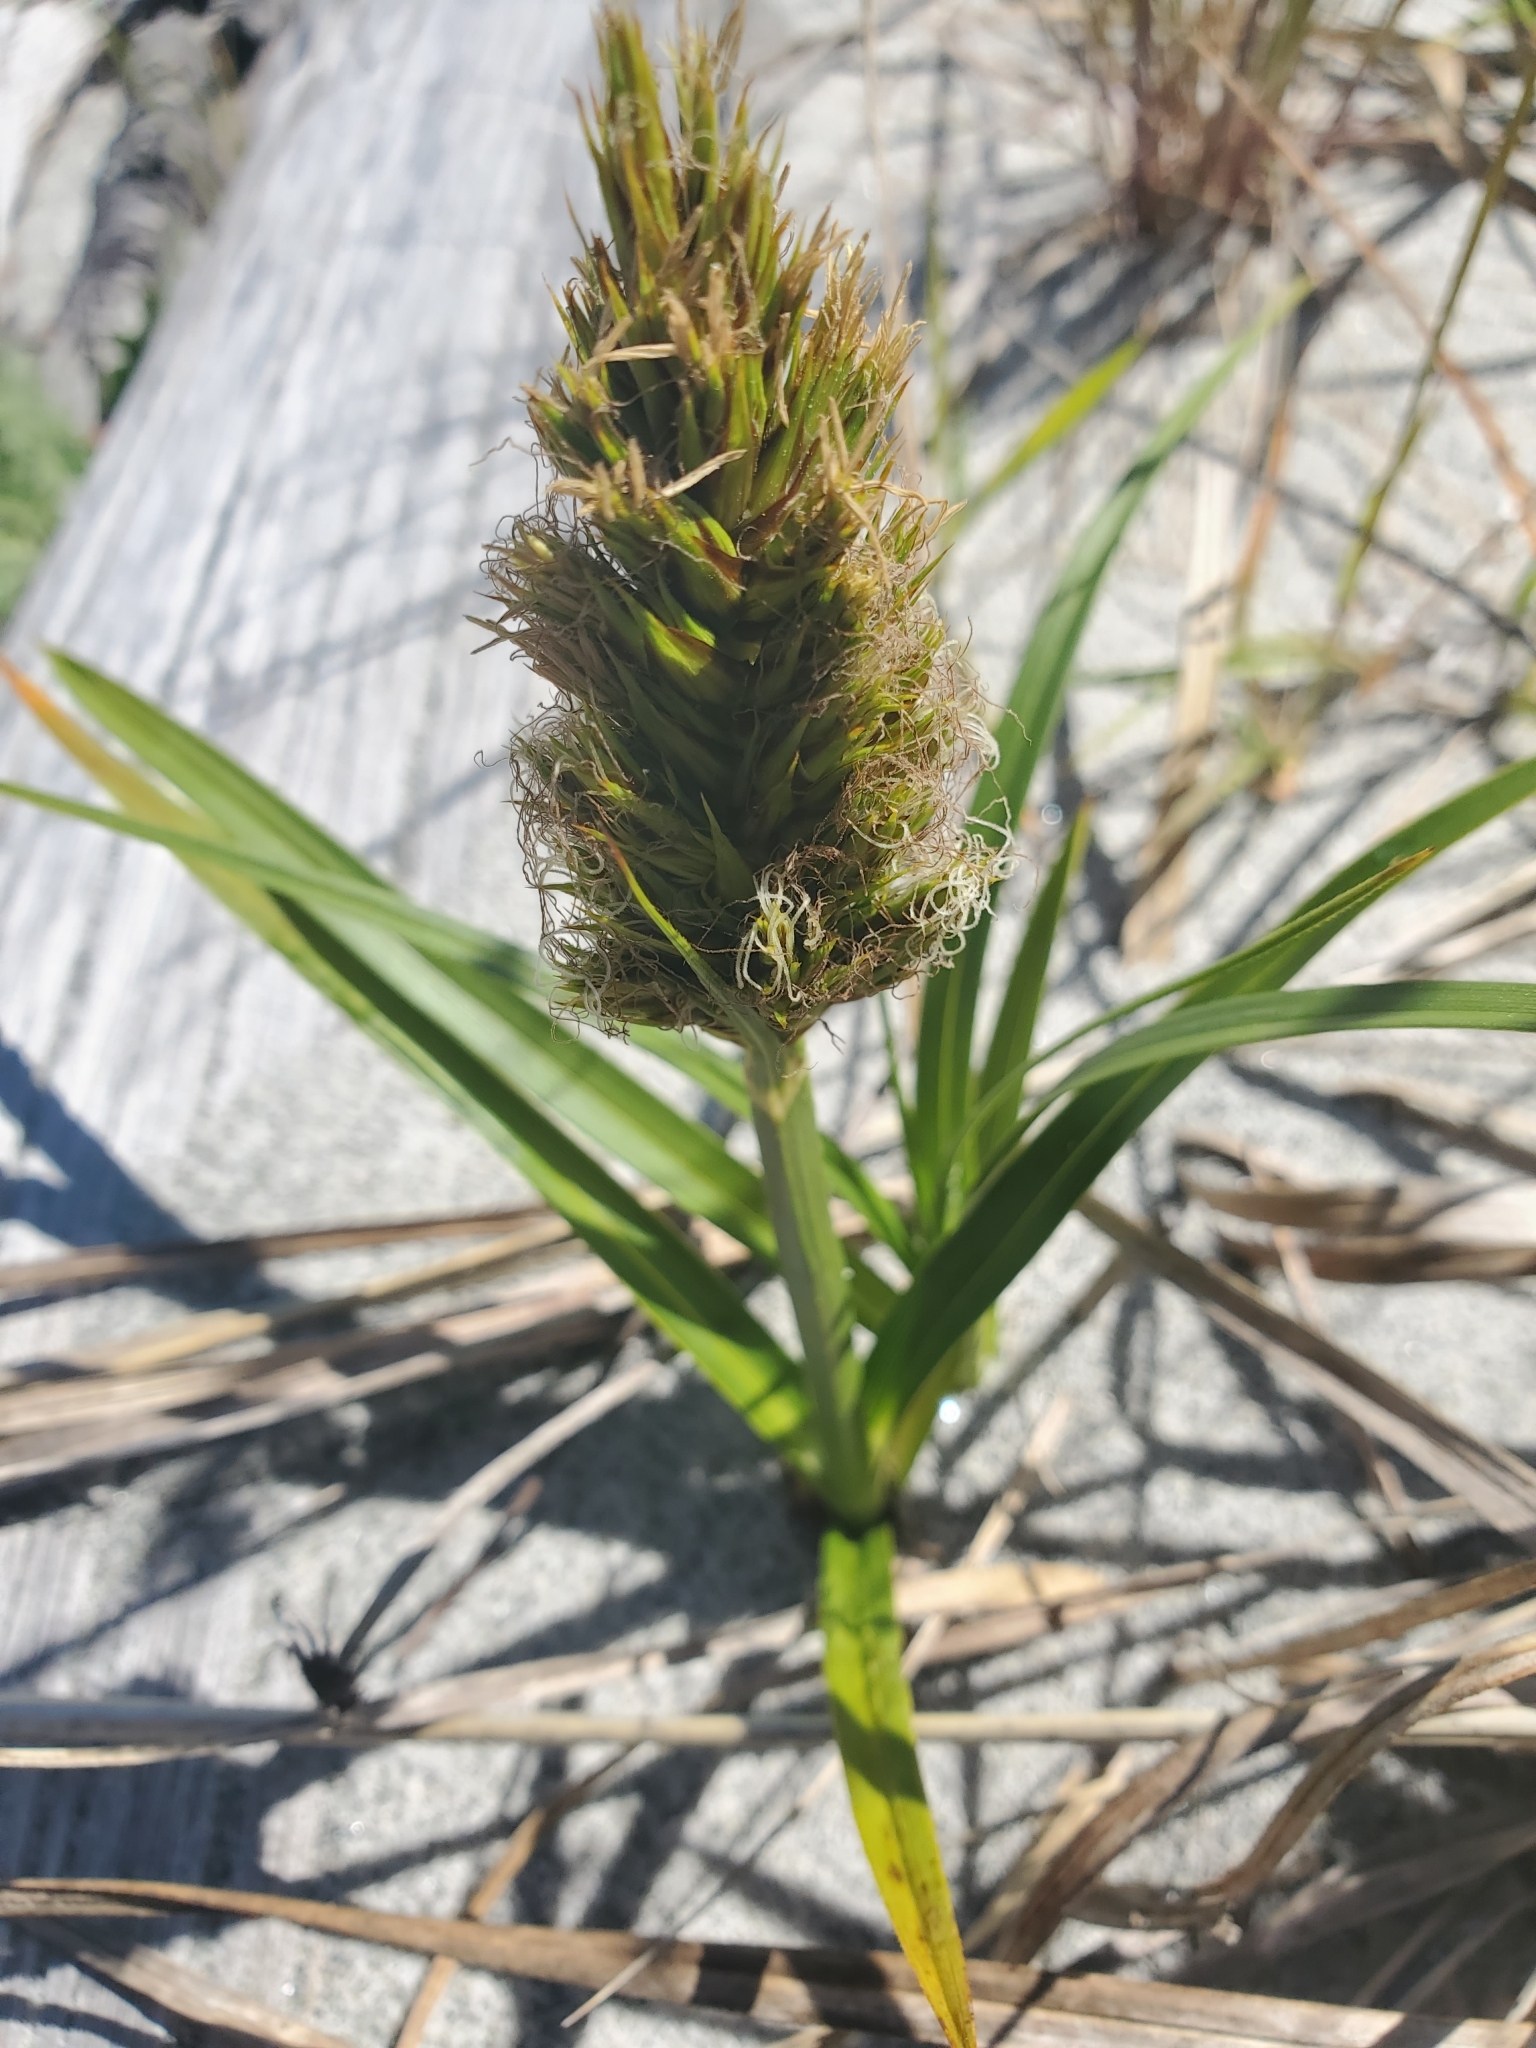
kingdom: Plantae
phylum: Tracheophyta
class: Liliopsida
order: Poales
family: Cyperaceae
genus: Carex
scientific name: Carex macrocephala
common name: Large-head sedge
